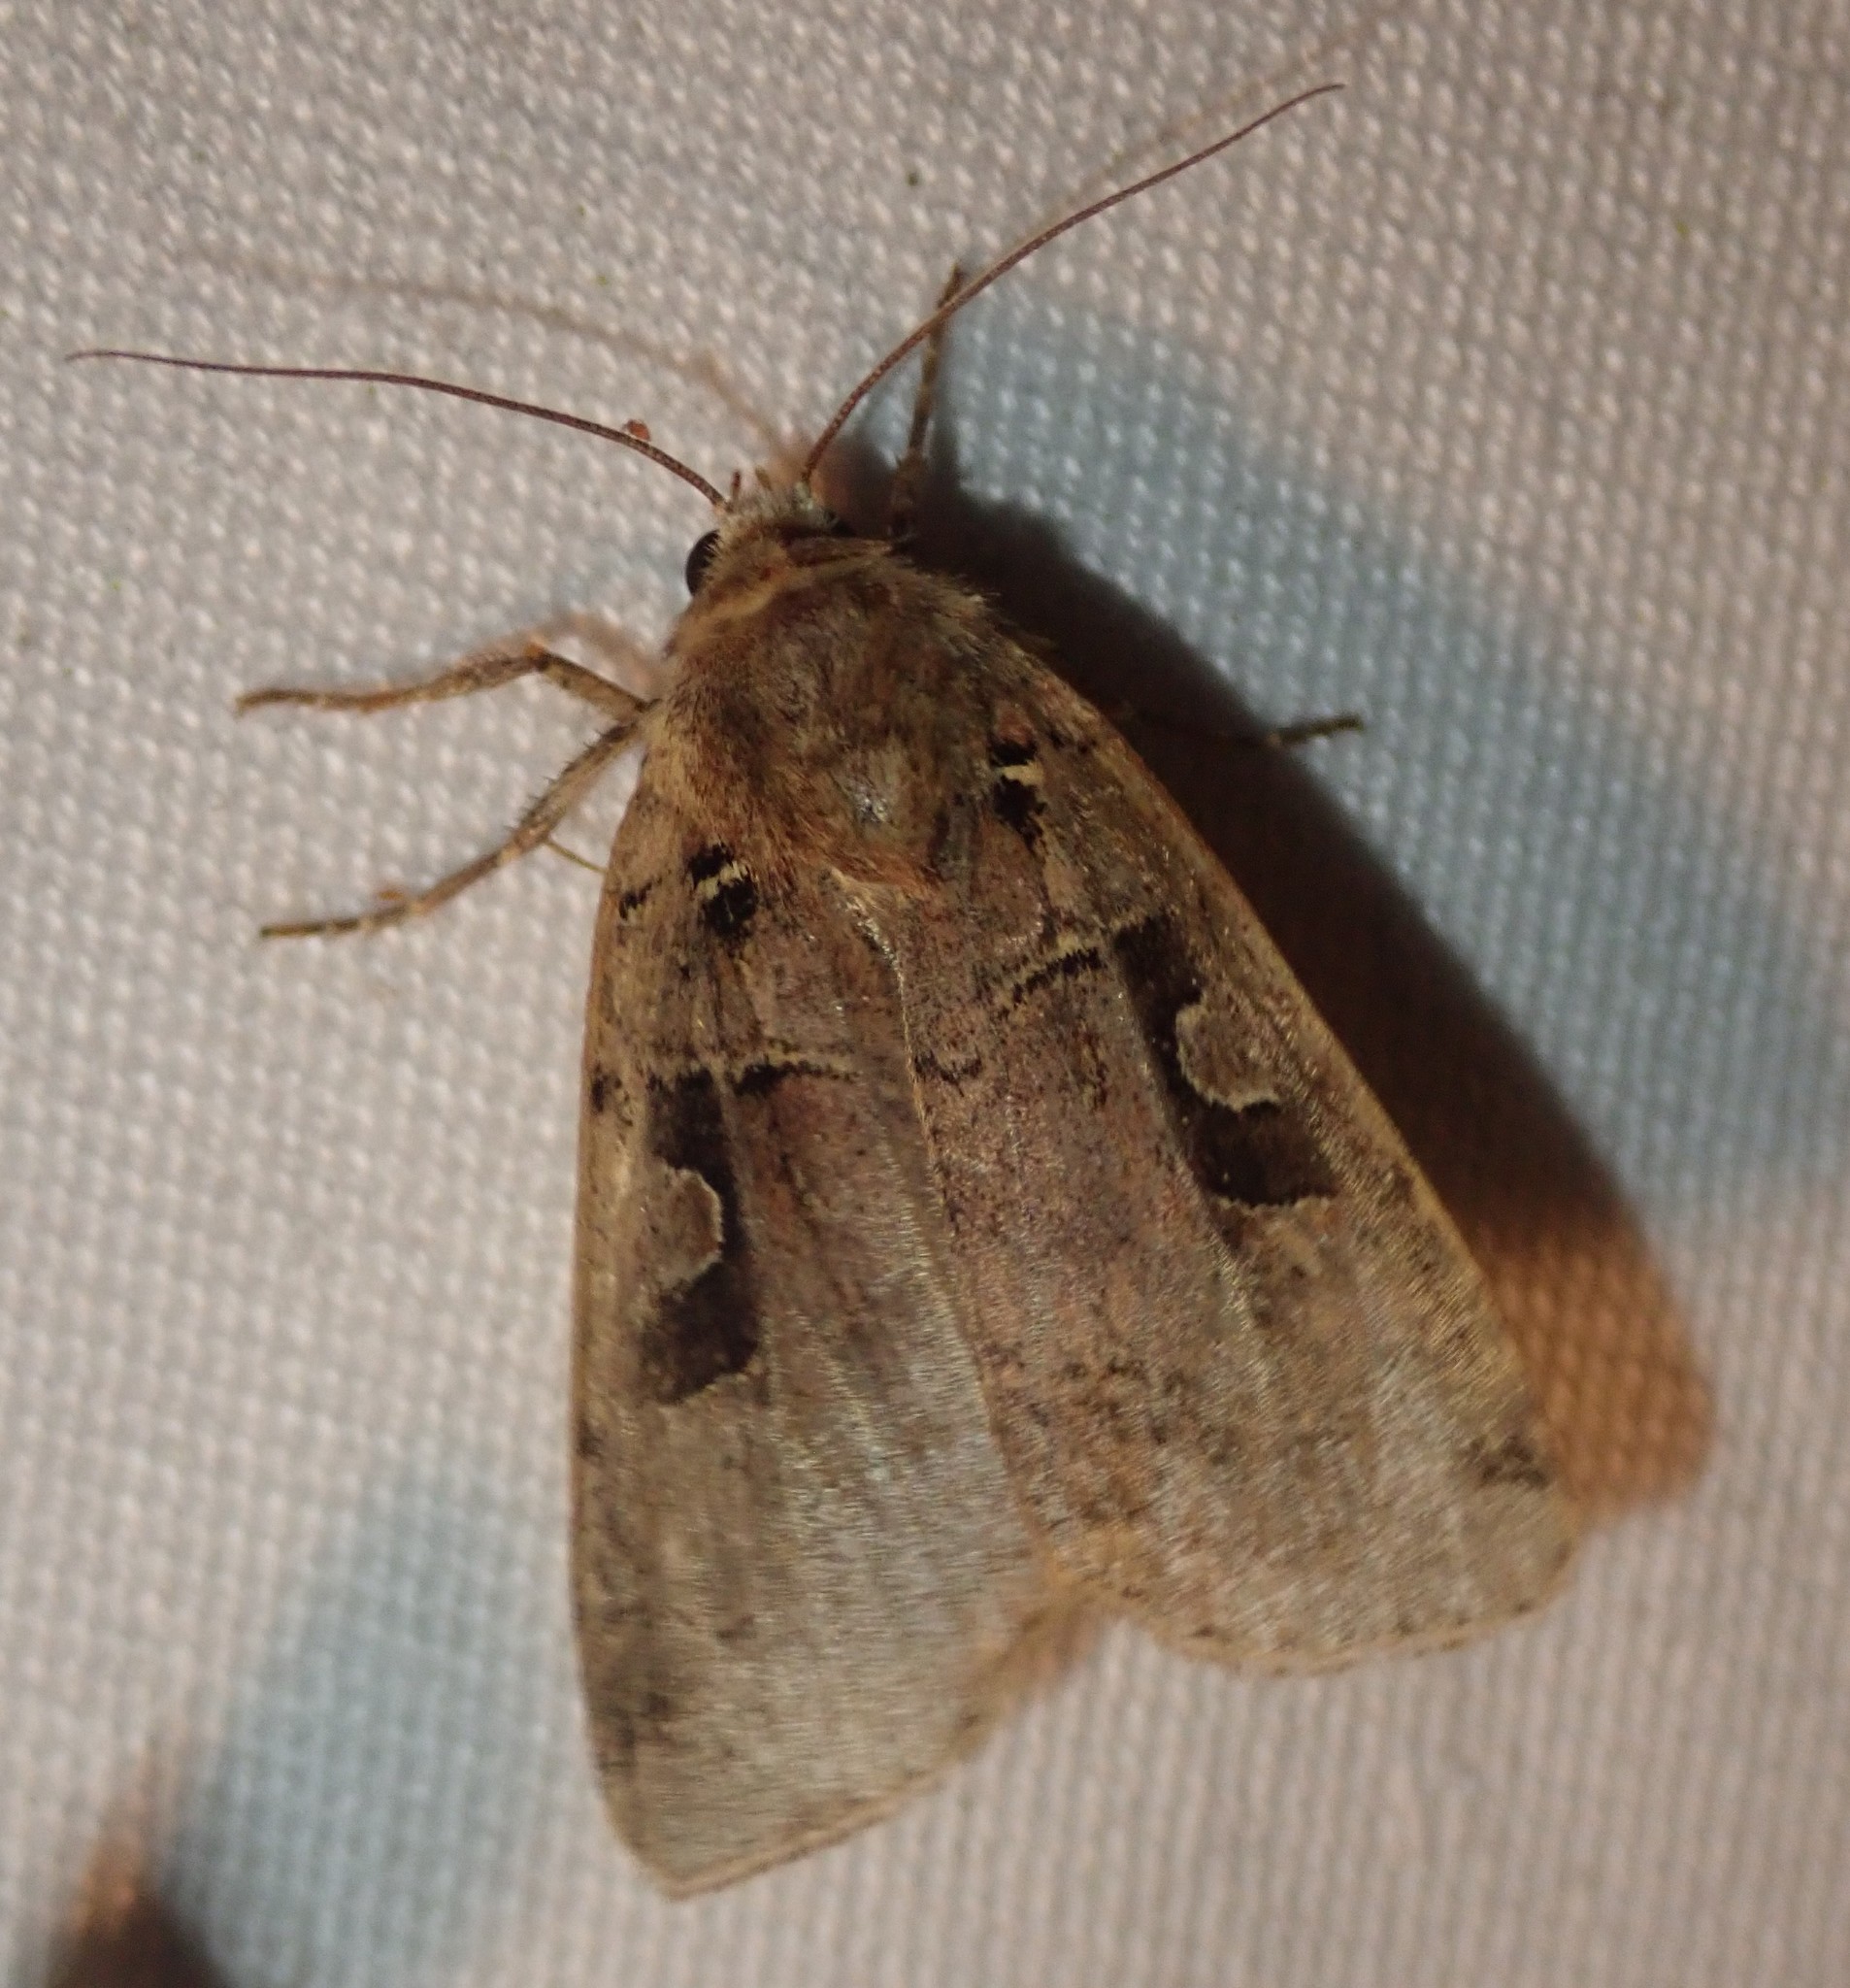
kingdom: Animalia
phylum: Arthropoda
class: Insecta
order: Lepidoptera
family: Noctuidae
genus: Xestia
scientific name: Xestia triangulum
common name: Double square-spot
